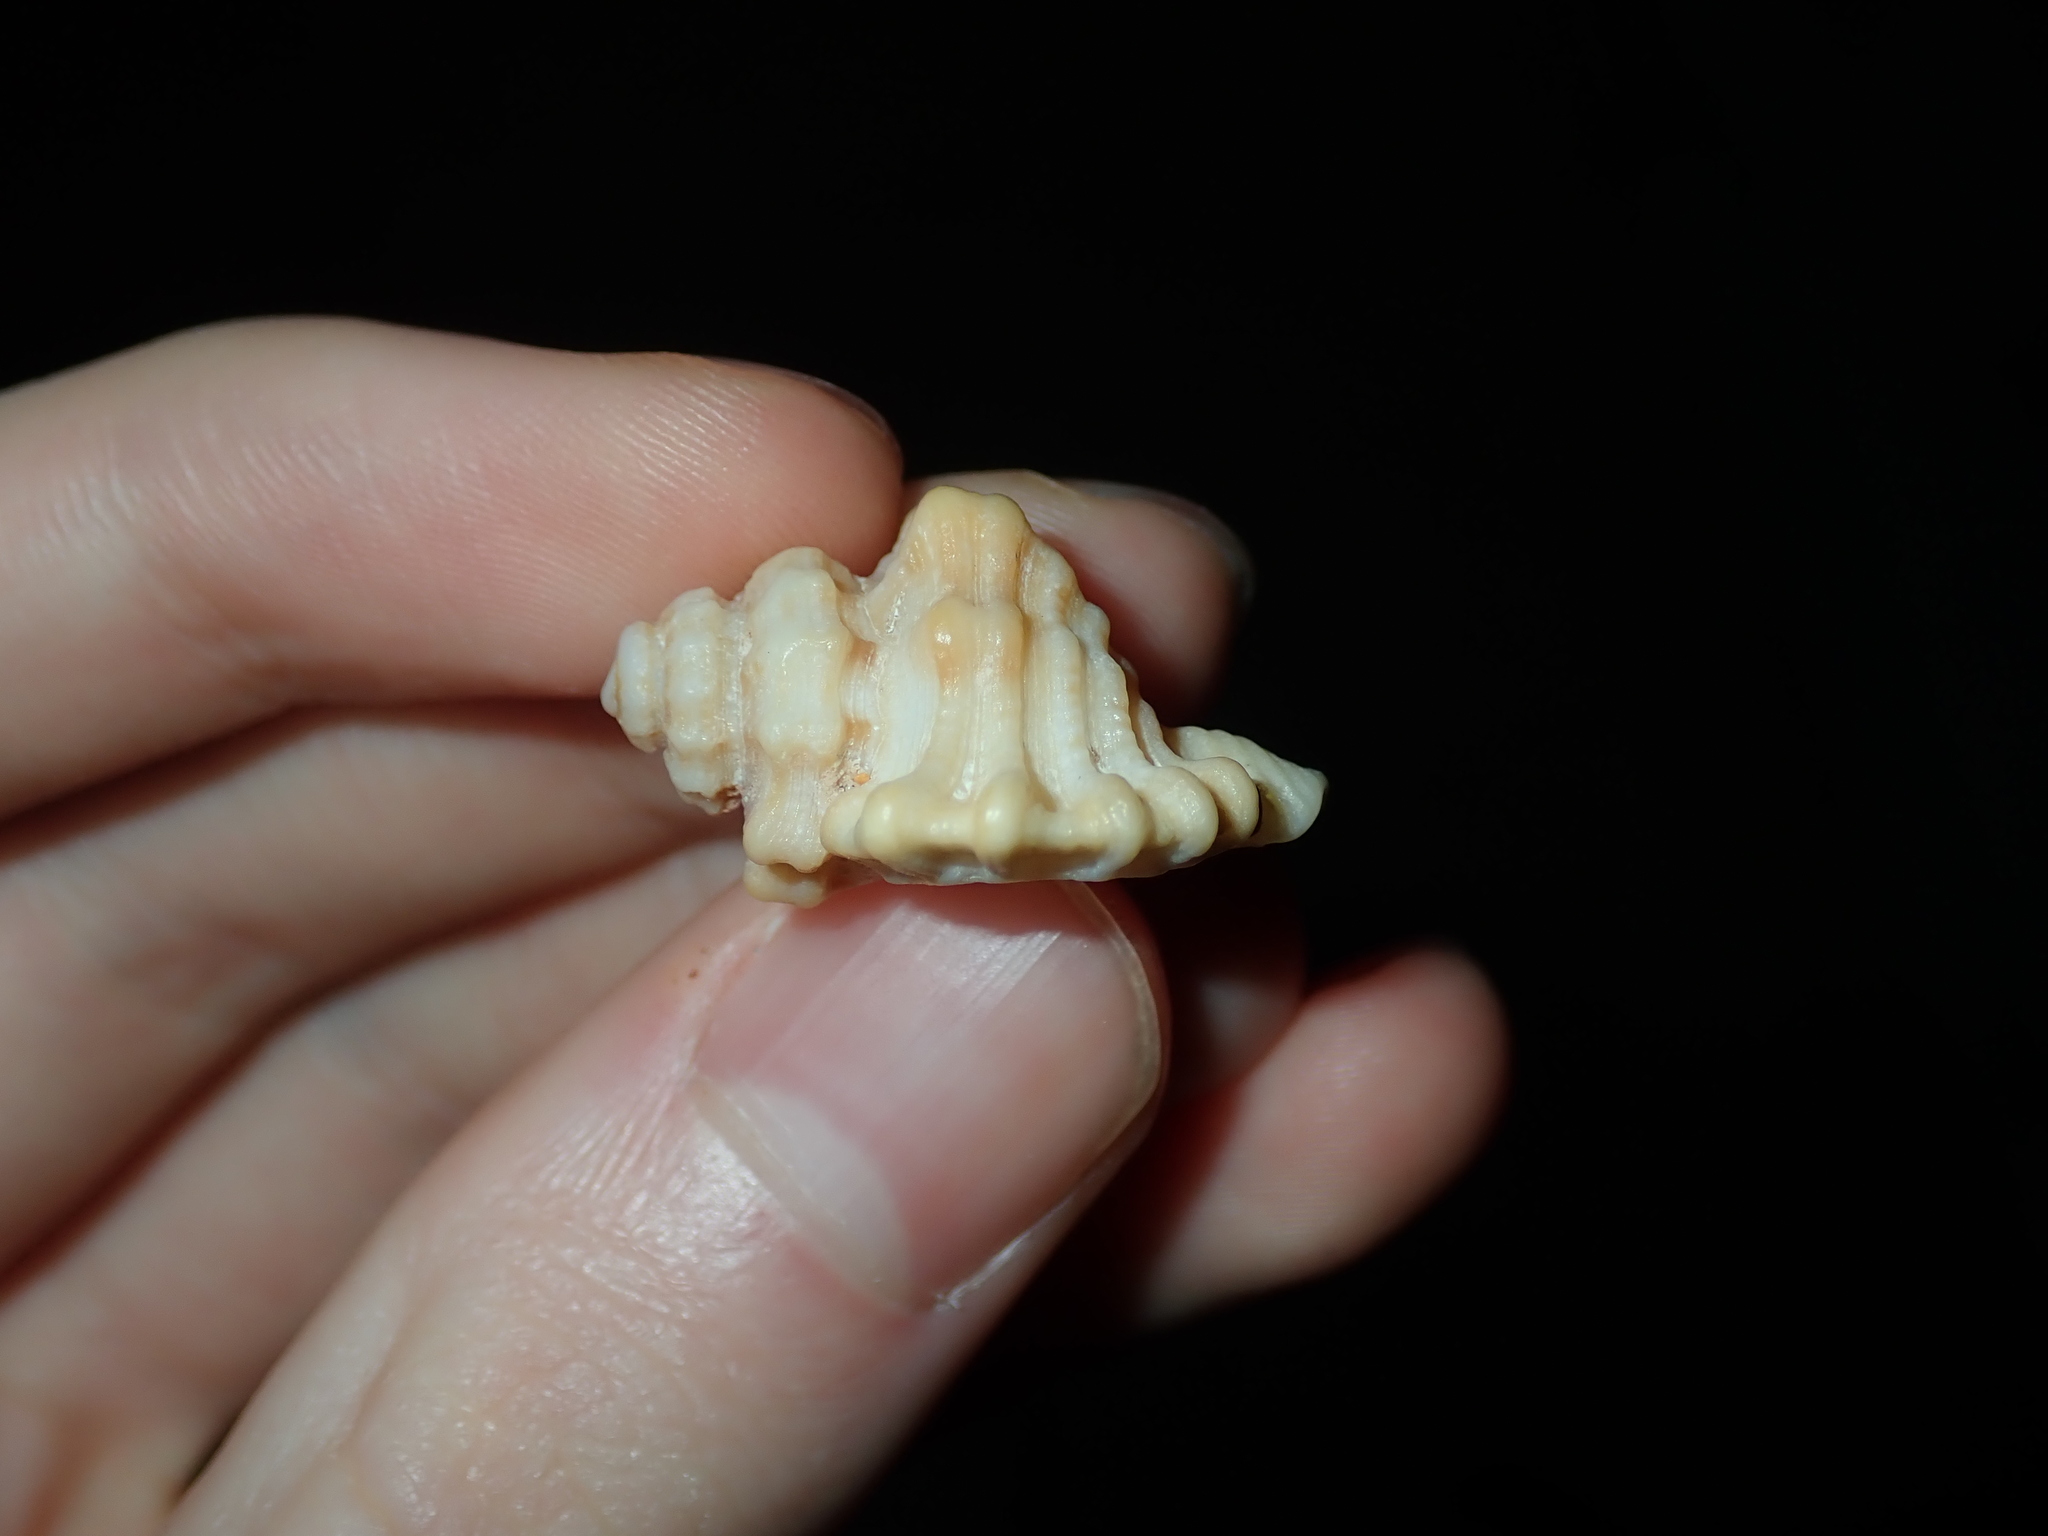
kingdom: Animalia
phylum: Mollusca
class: Gastropoda
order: Littorinimorpha
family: Cymatiidae
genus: Monoplex
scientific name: Monoplex exaratus
